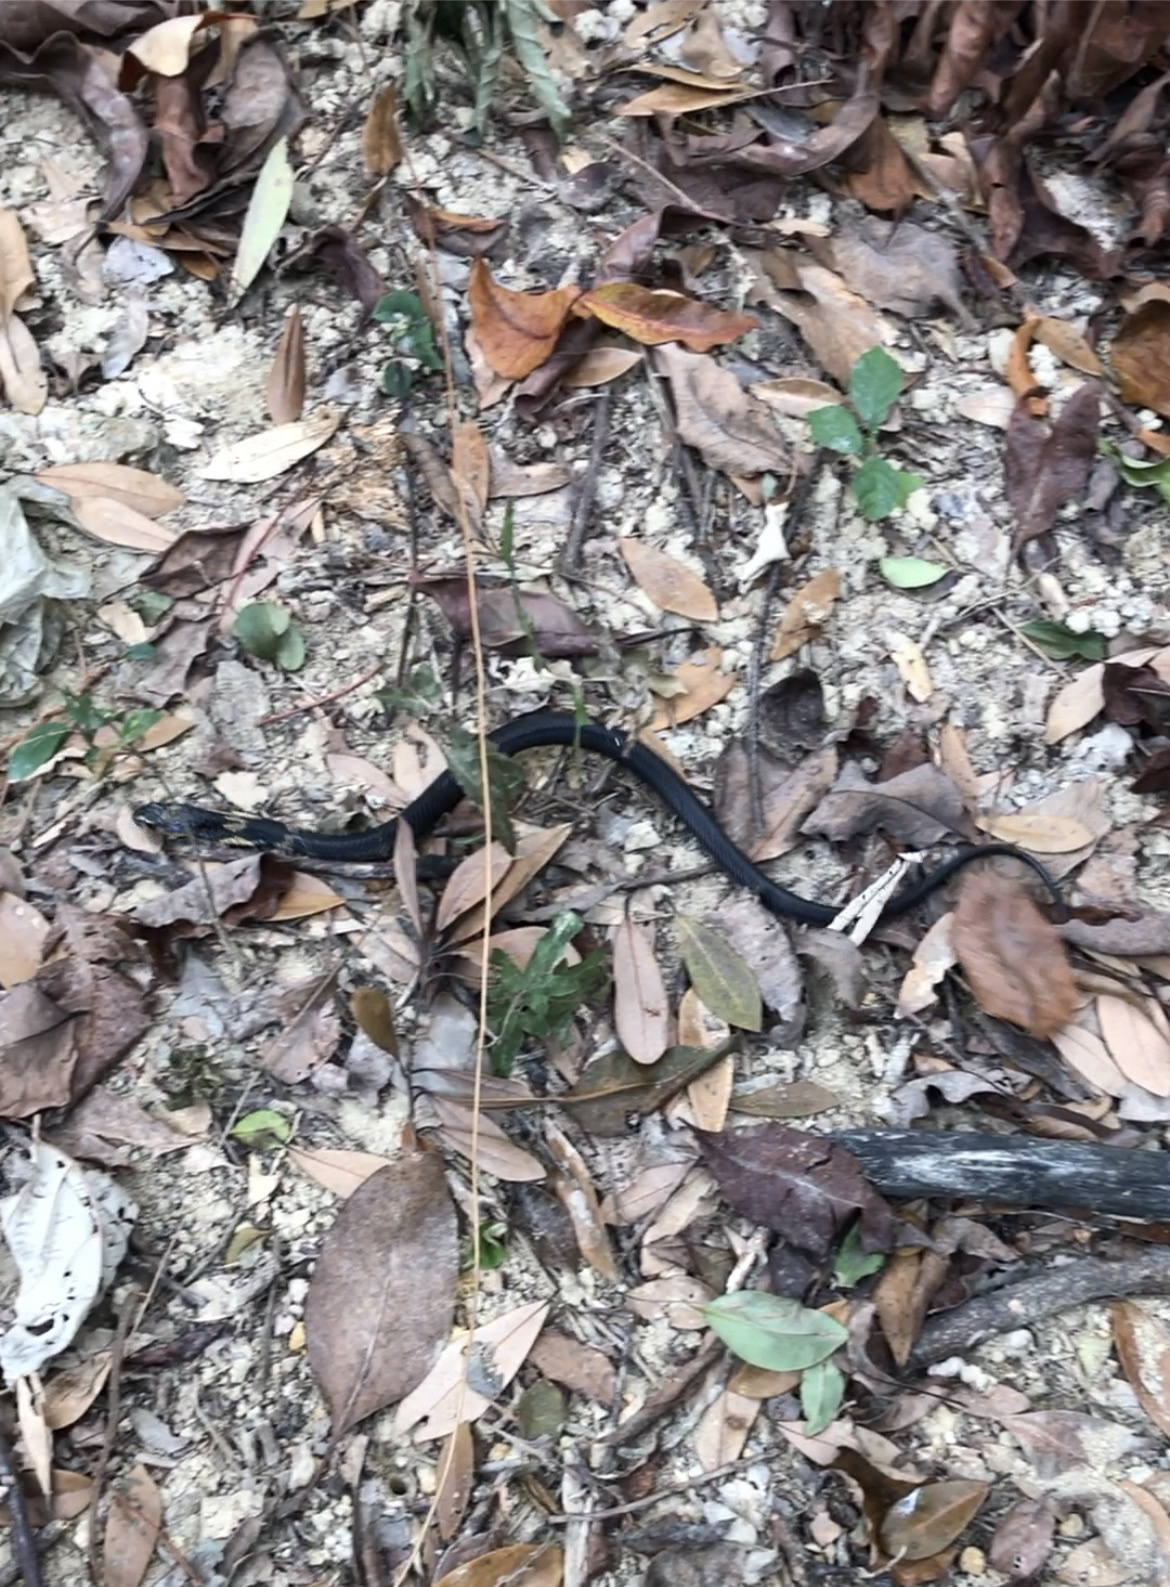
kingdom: Animalia
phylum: Chordata
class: Squamata
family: Elapidae
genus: Naja
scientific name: Naja atra
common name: Chinese cobra
